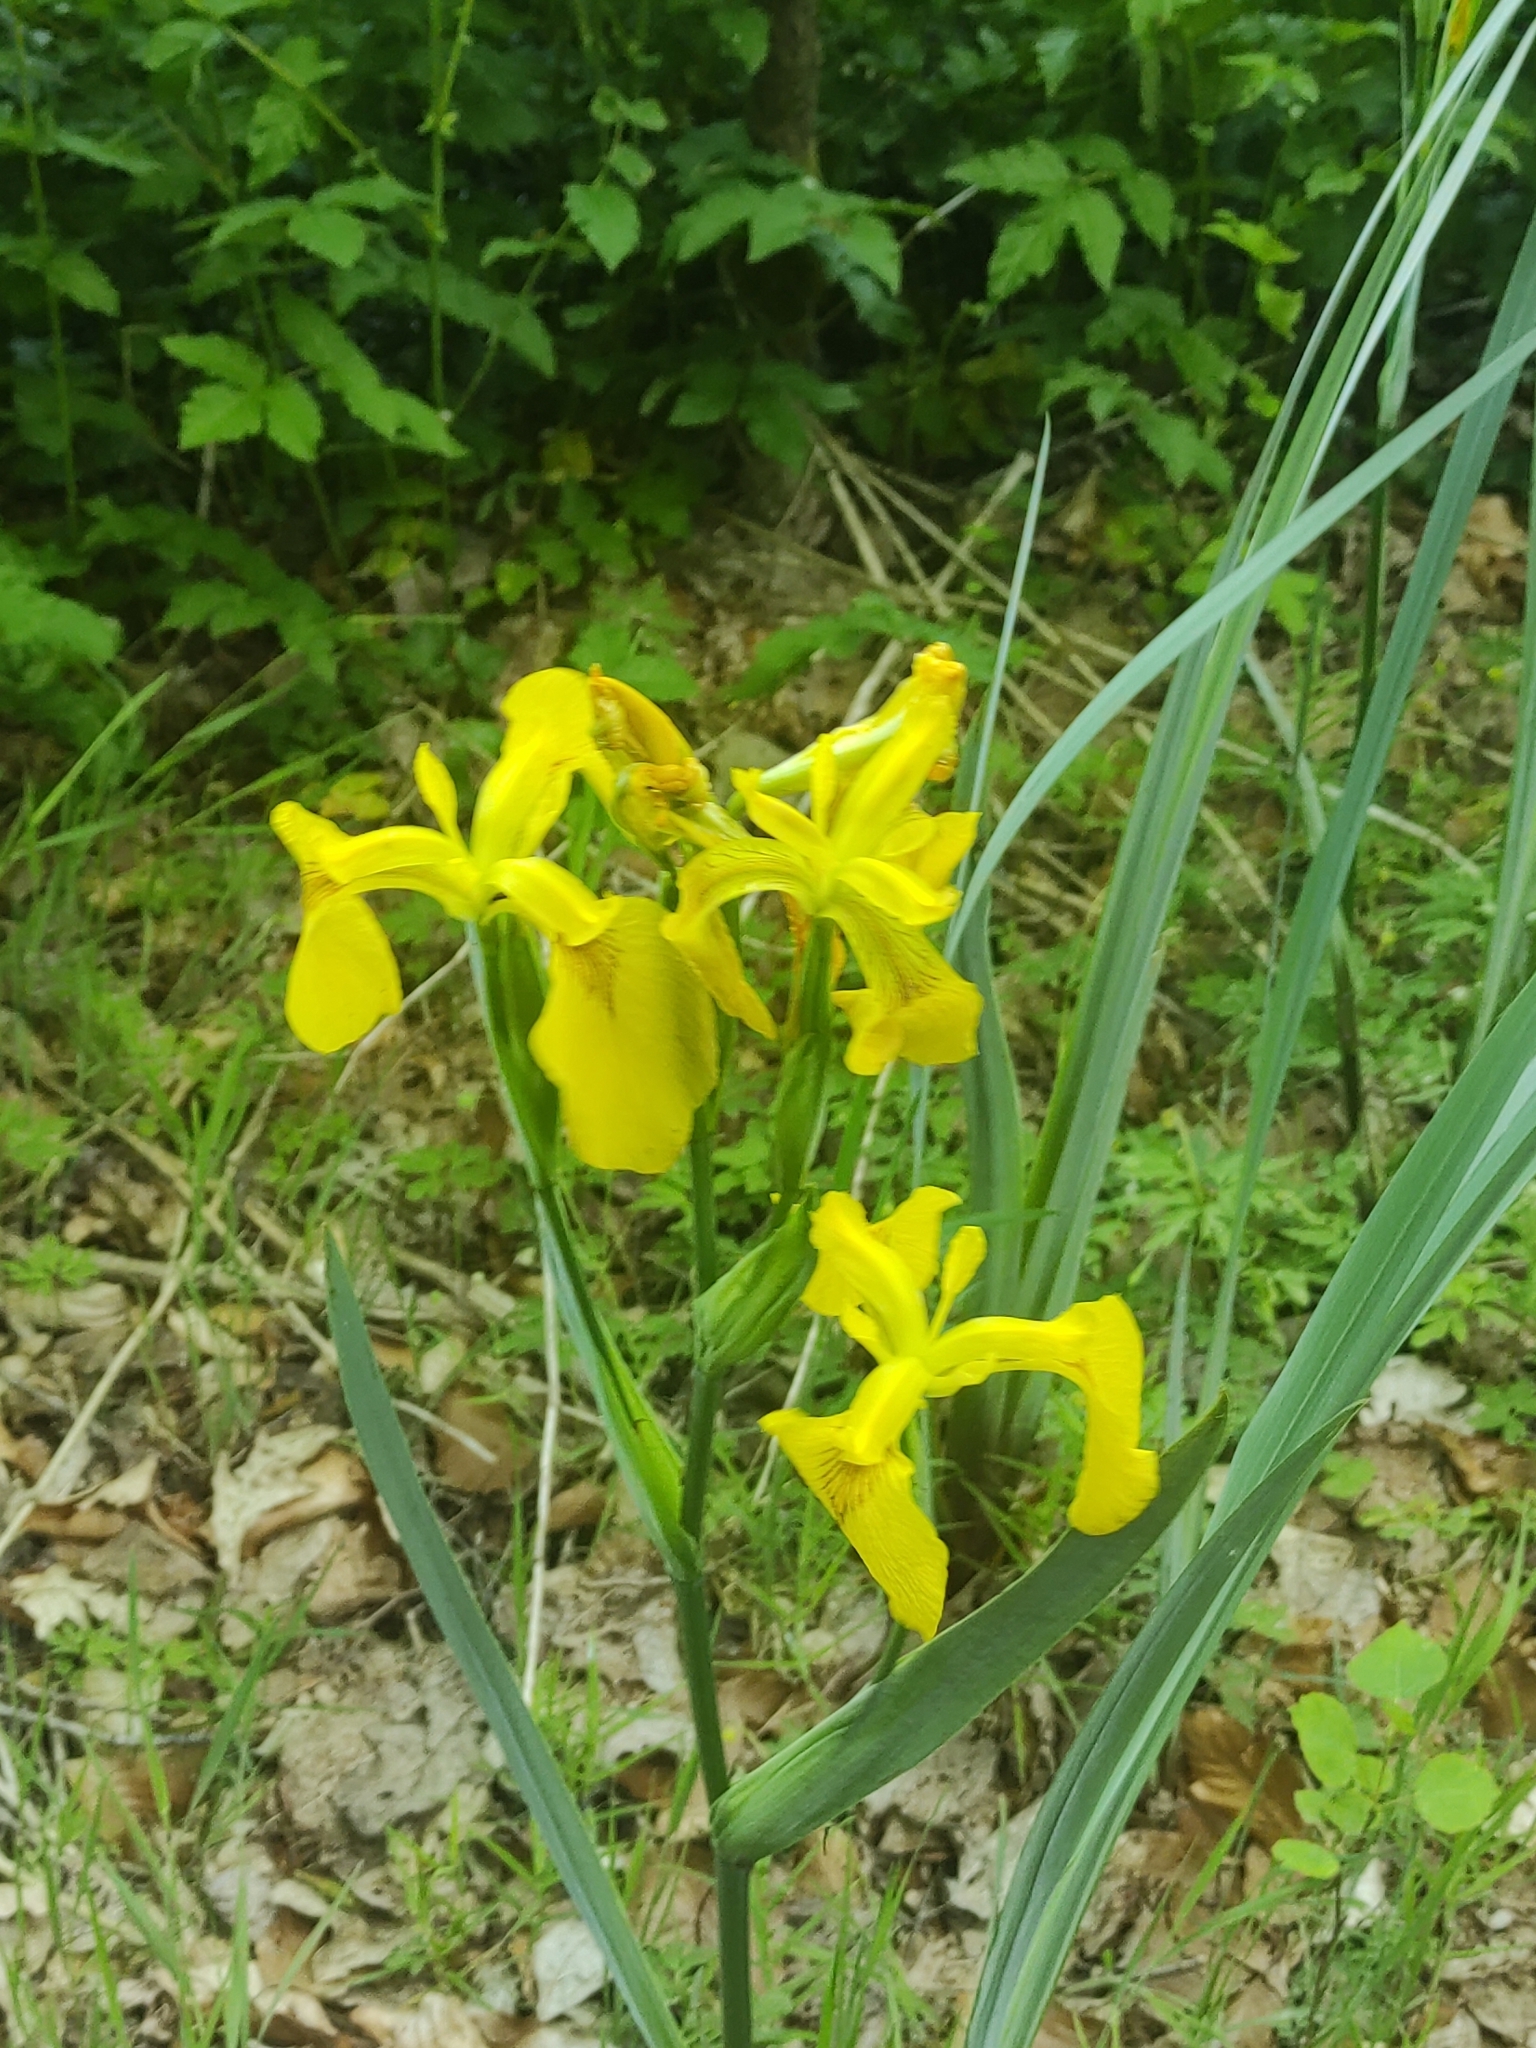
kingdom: Plantae
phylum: Tracheophyta
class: Liliopsida
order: Asparagales
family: Iridaceae
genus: Iris
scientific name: Iris pseudacorus
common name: Yellow flag
